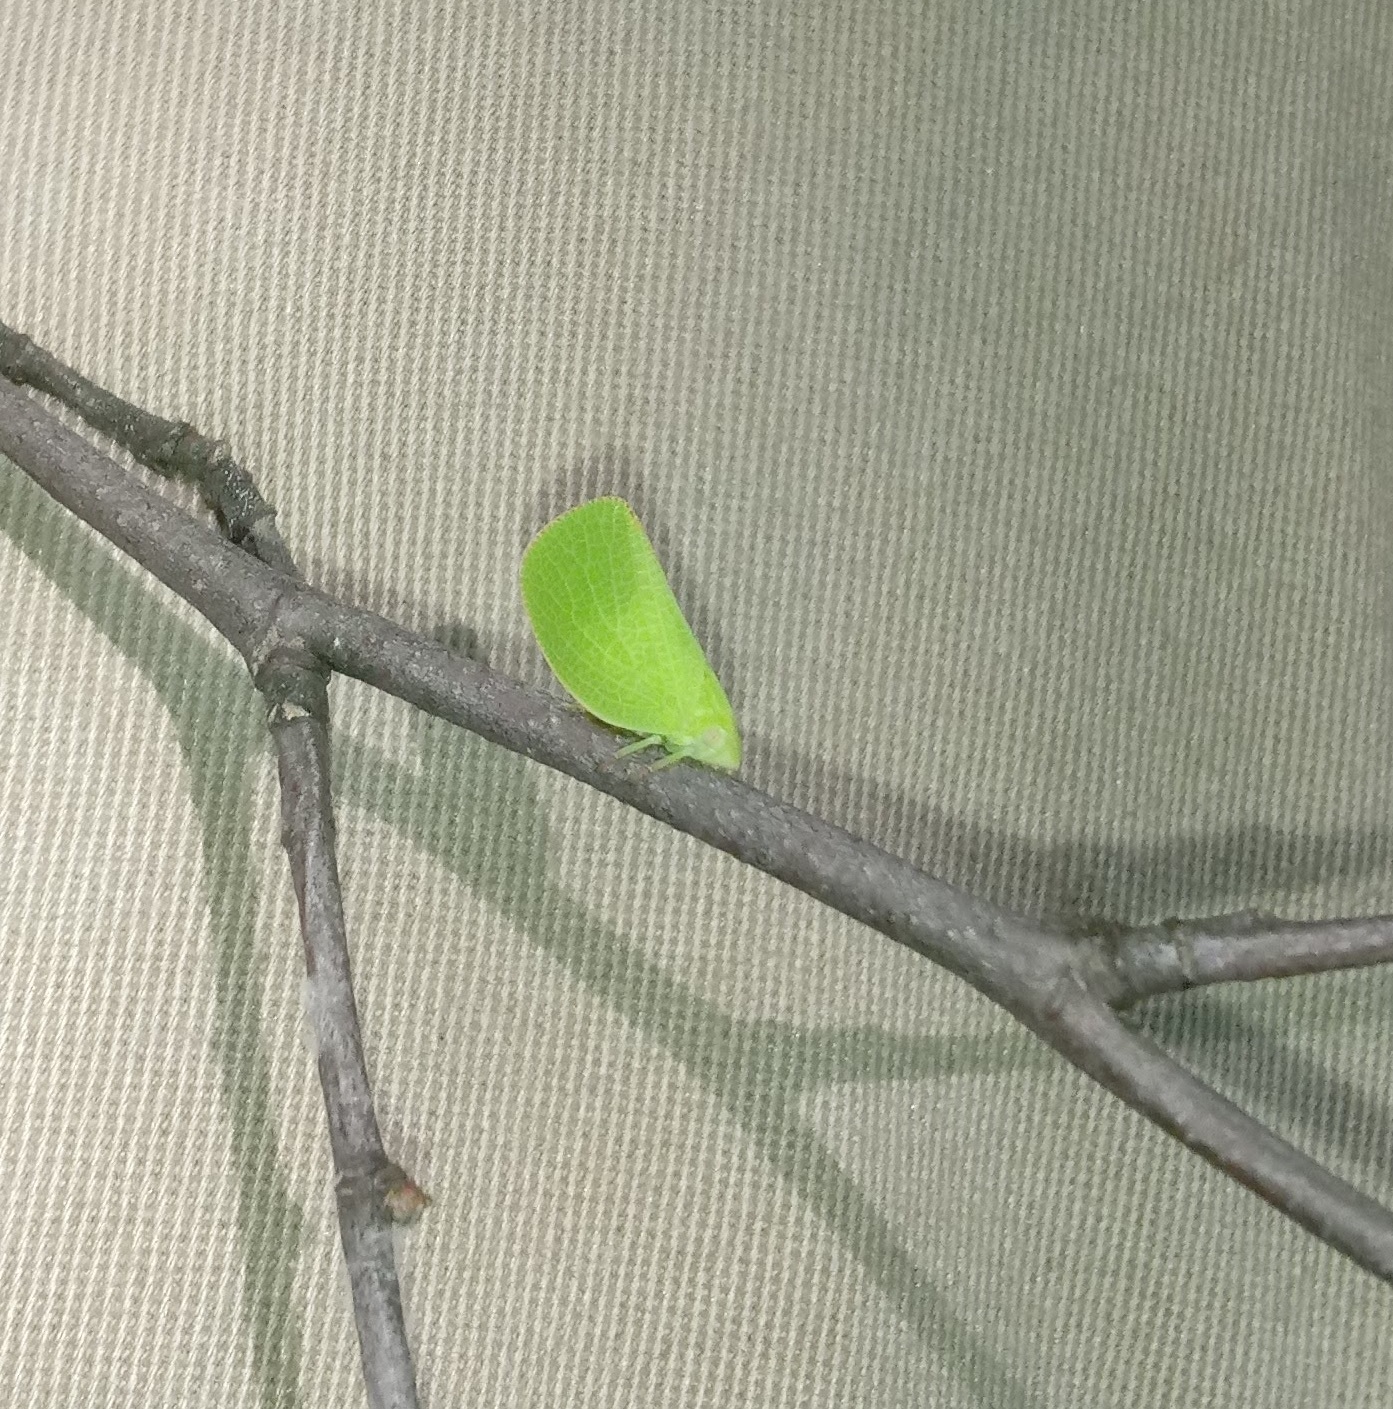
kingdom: Animalia
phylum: Arthropoda
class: Insecta
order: Hemiptera
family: Acanaloniidae
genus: Acanalonia
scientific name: Acanalonia conica
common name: Green cone-headed planthopper
